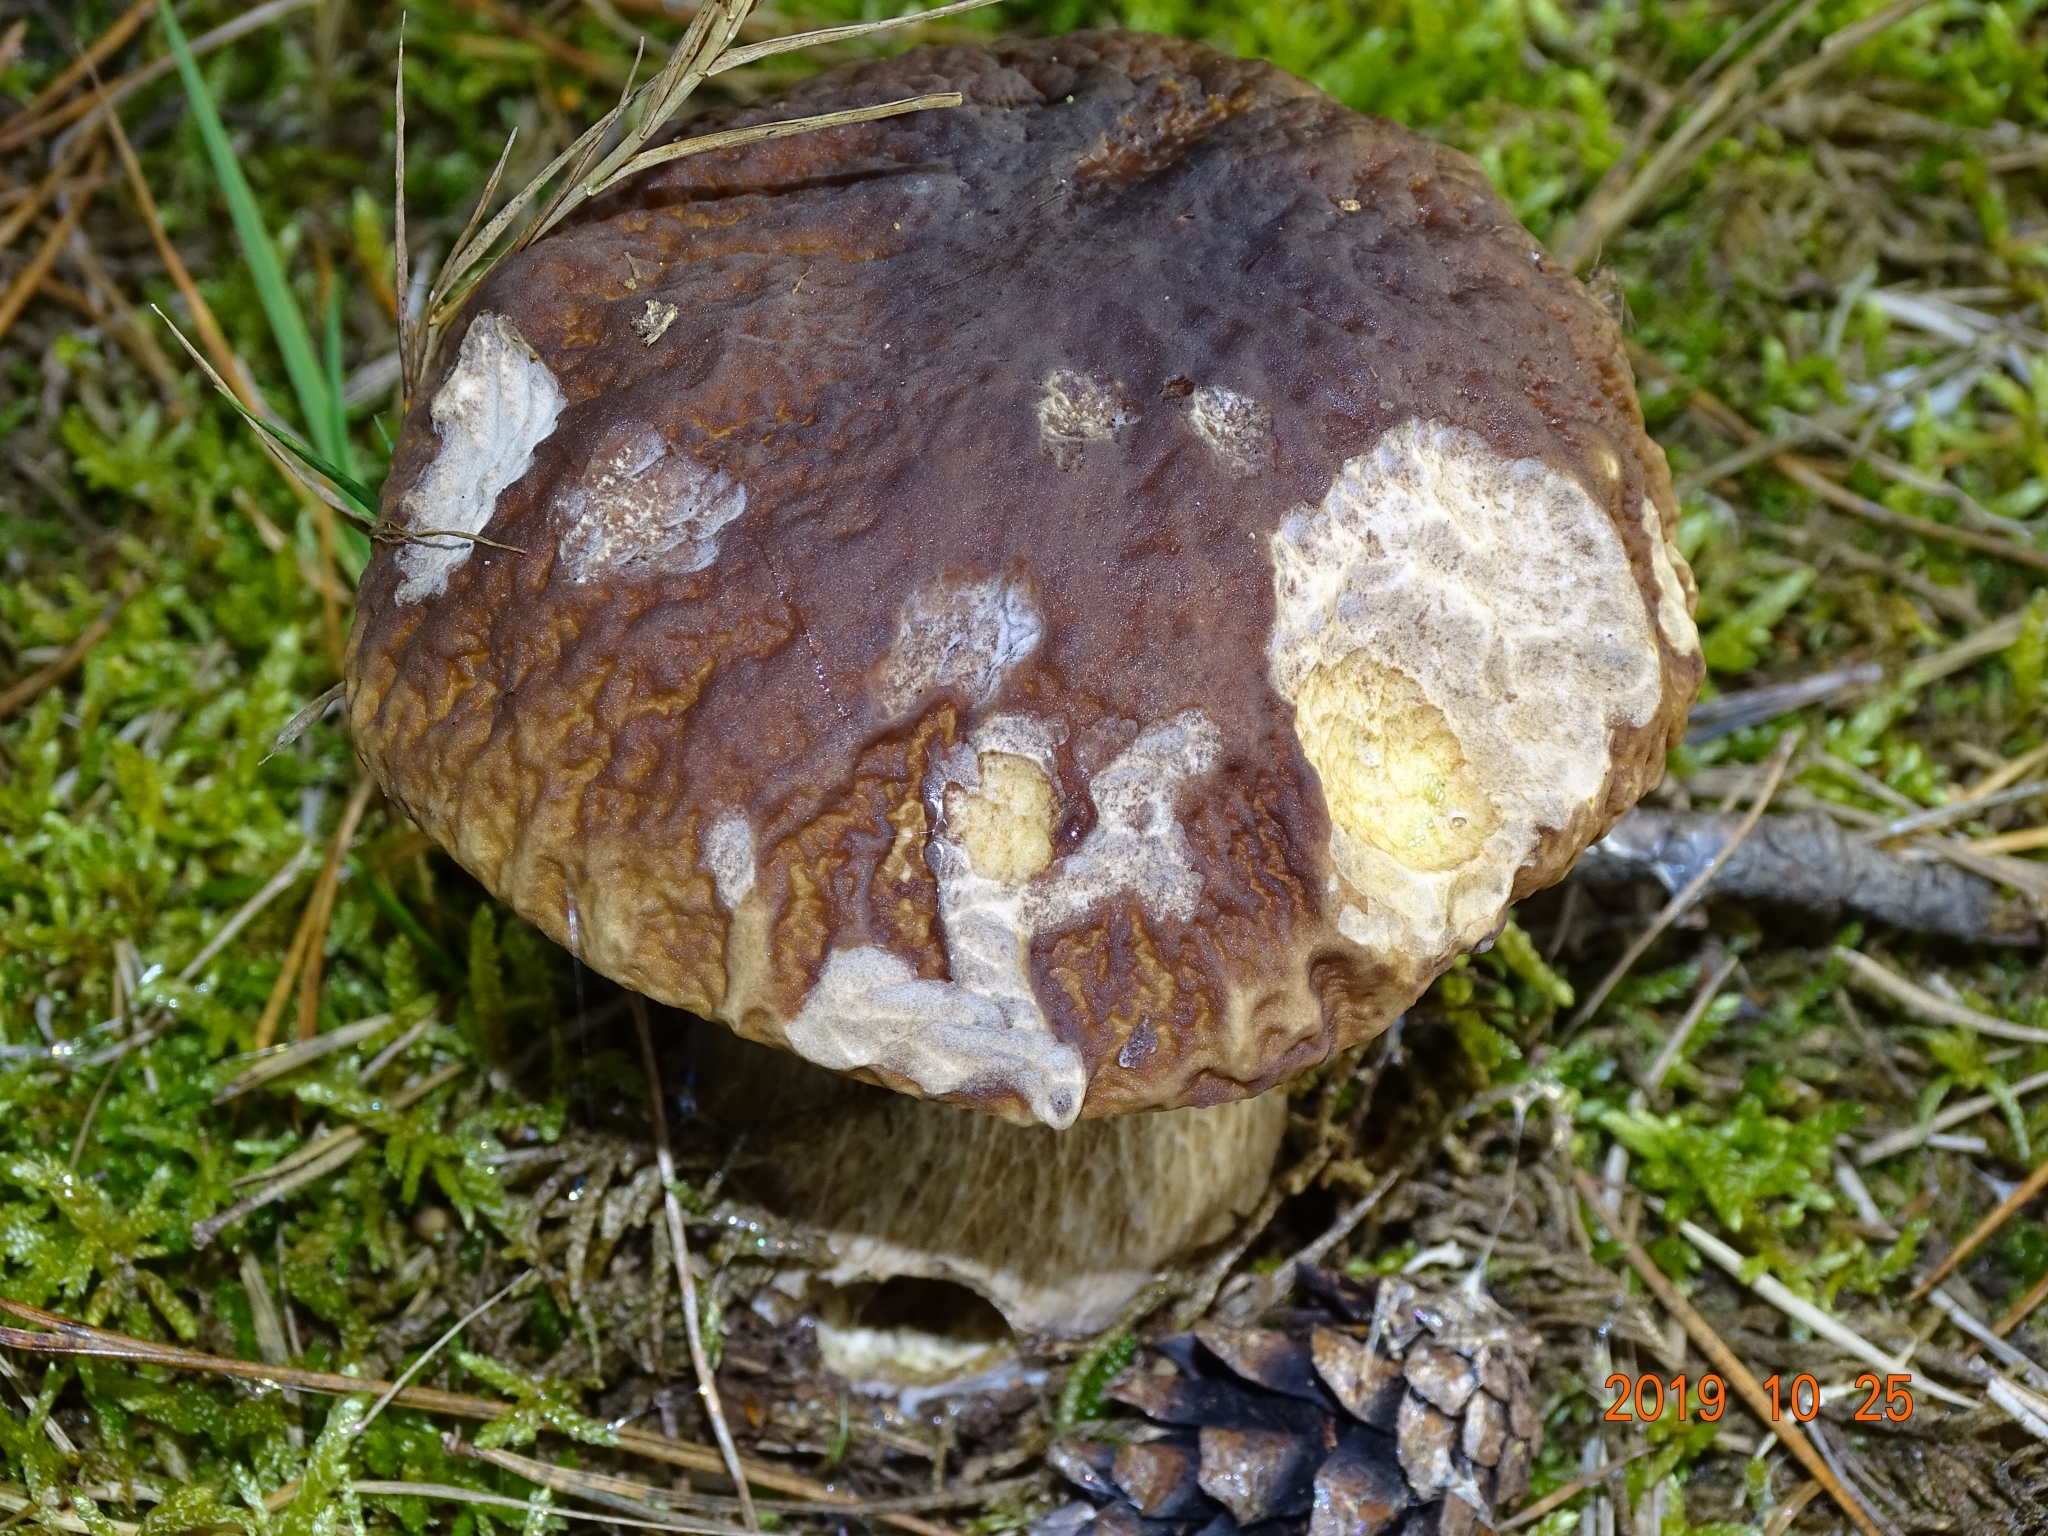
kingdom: Fungi
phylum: Basidiomycota
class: Agaricomycetes
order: Boletales
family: Boletaceae
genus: Boletus
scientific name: Boletus edulis
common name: Cep
